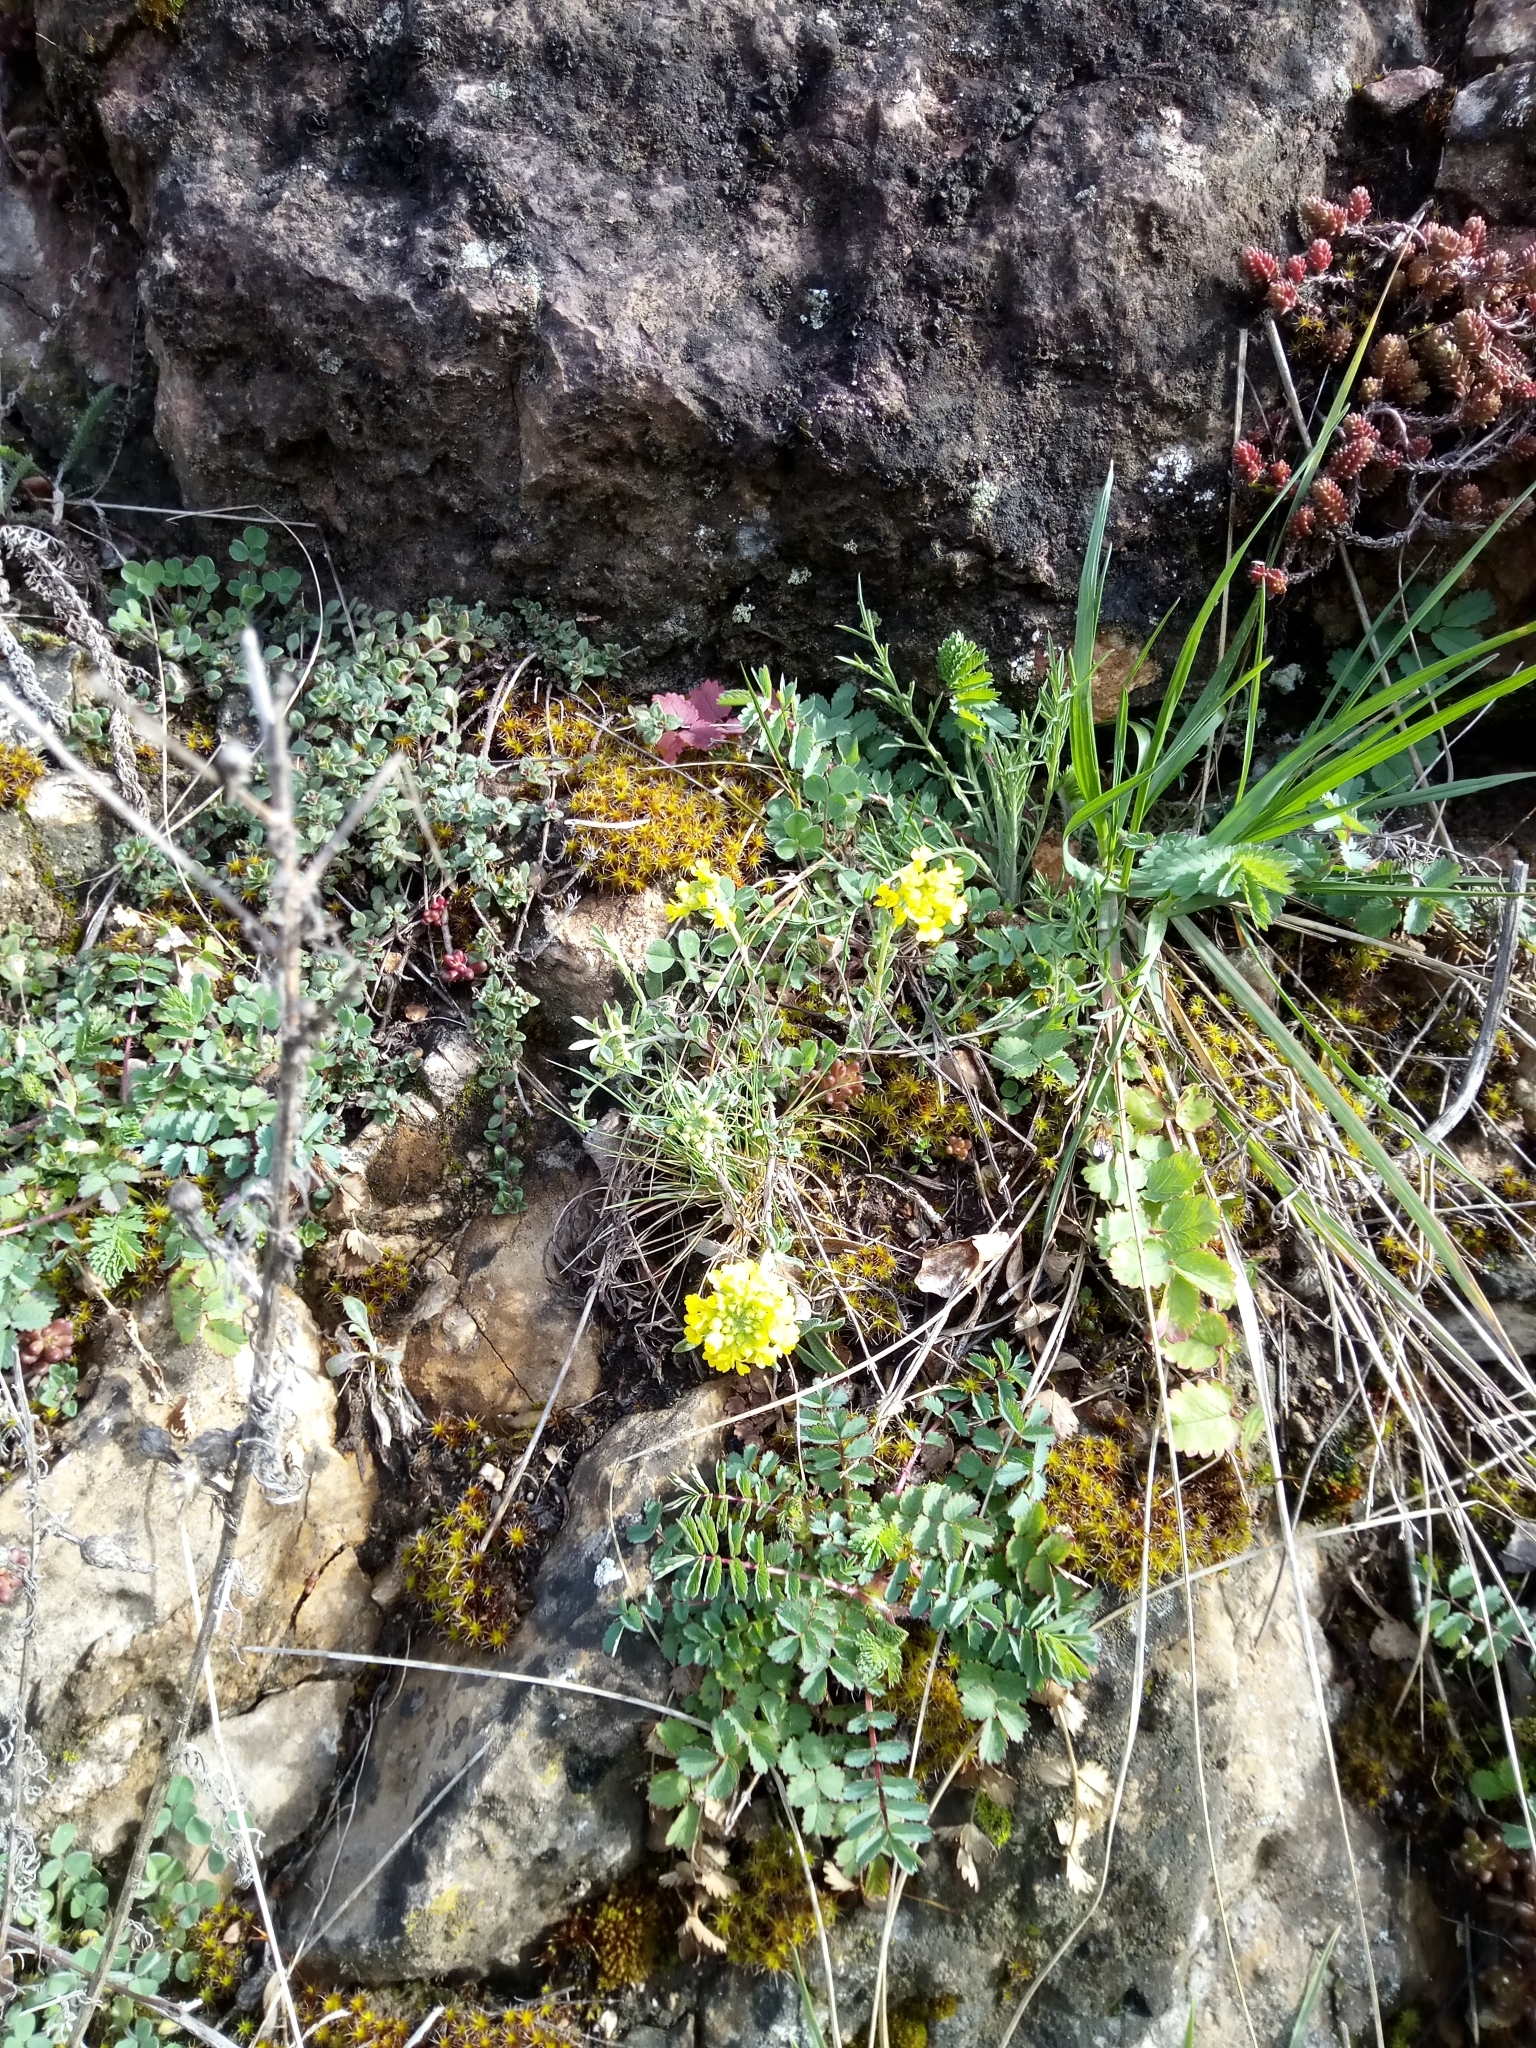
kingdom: Plantae
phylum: Tracheophyta
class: Magnoliopsida
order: Brassicales
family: Brassicaceae
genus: Alyssum
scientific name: Alyssum gmelinii
